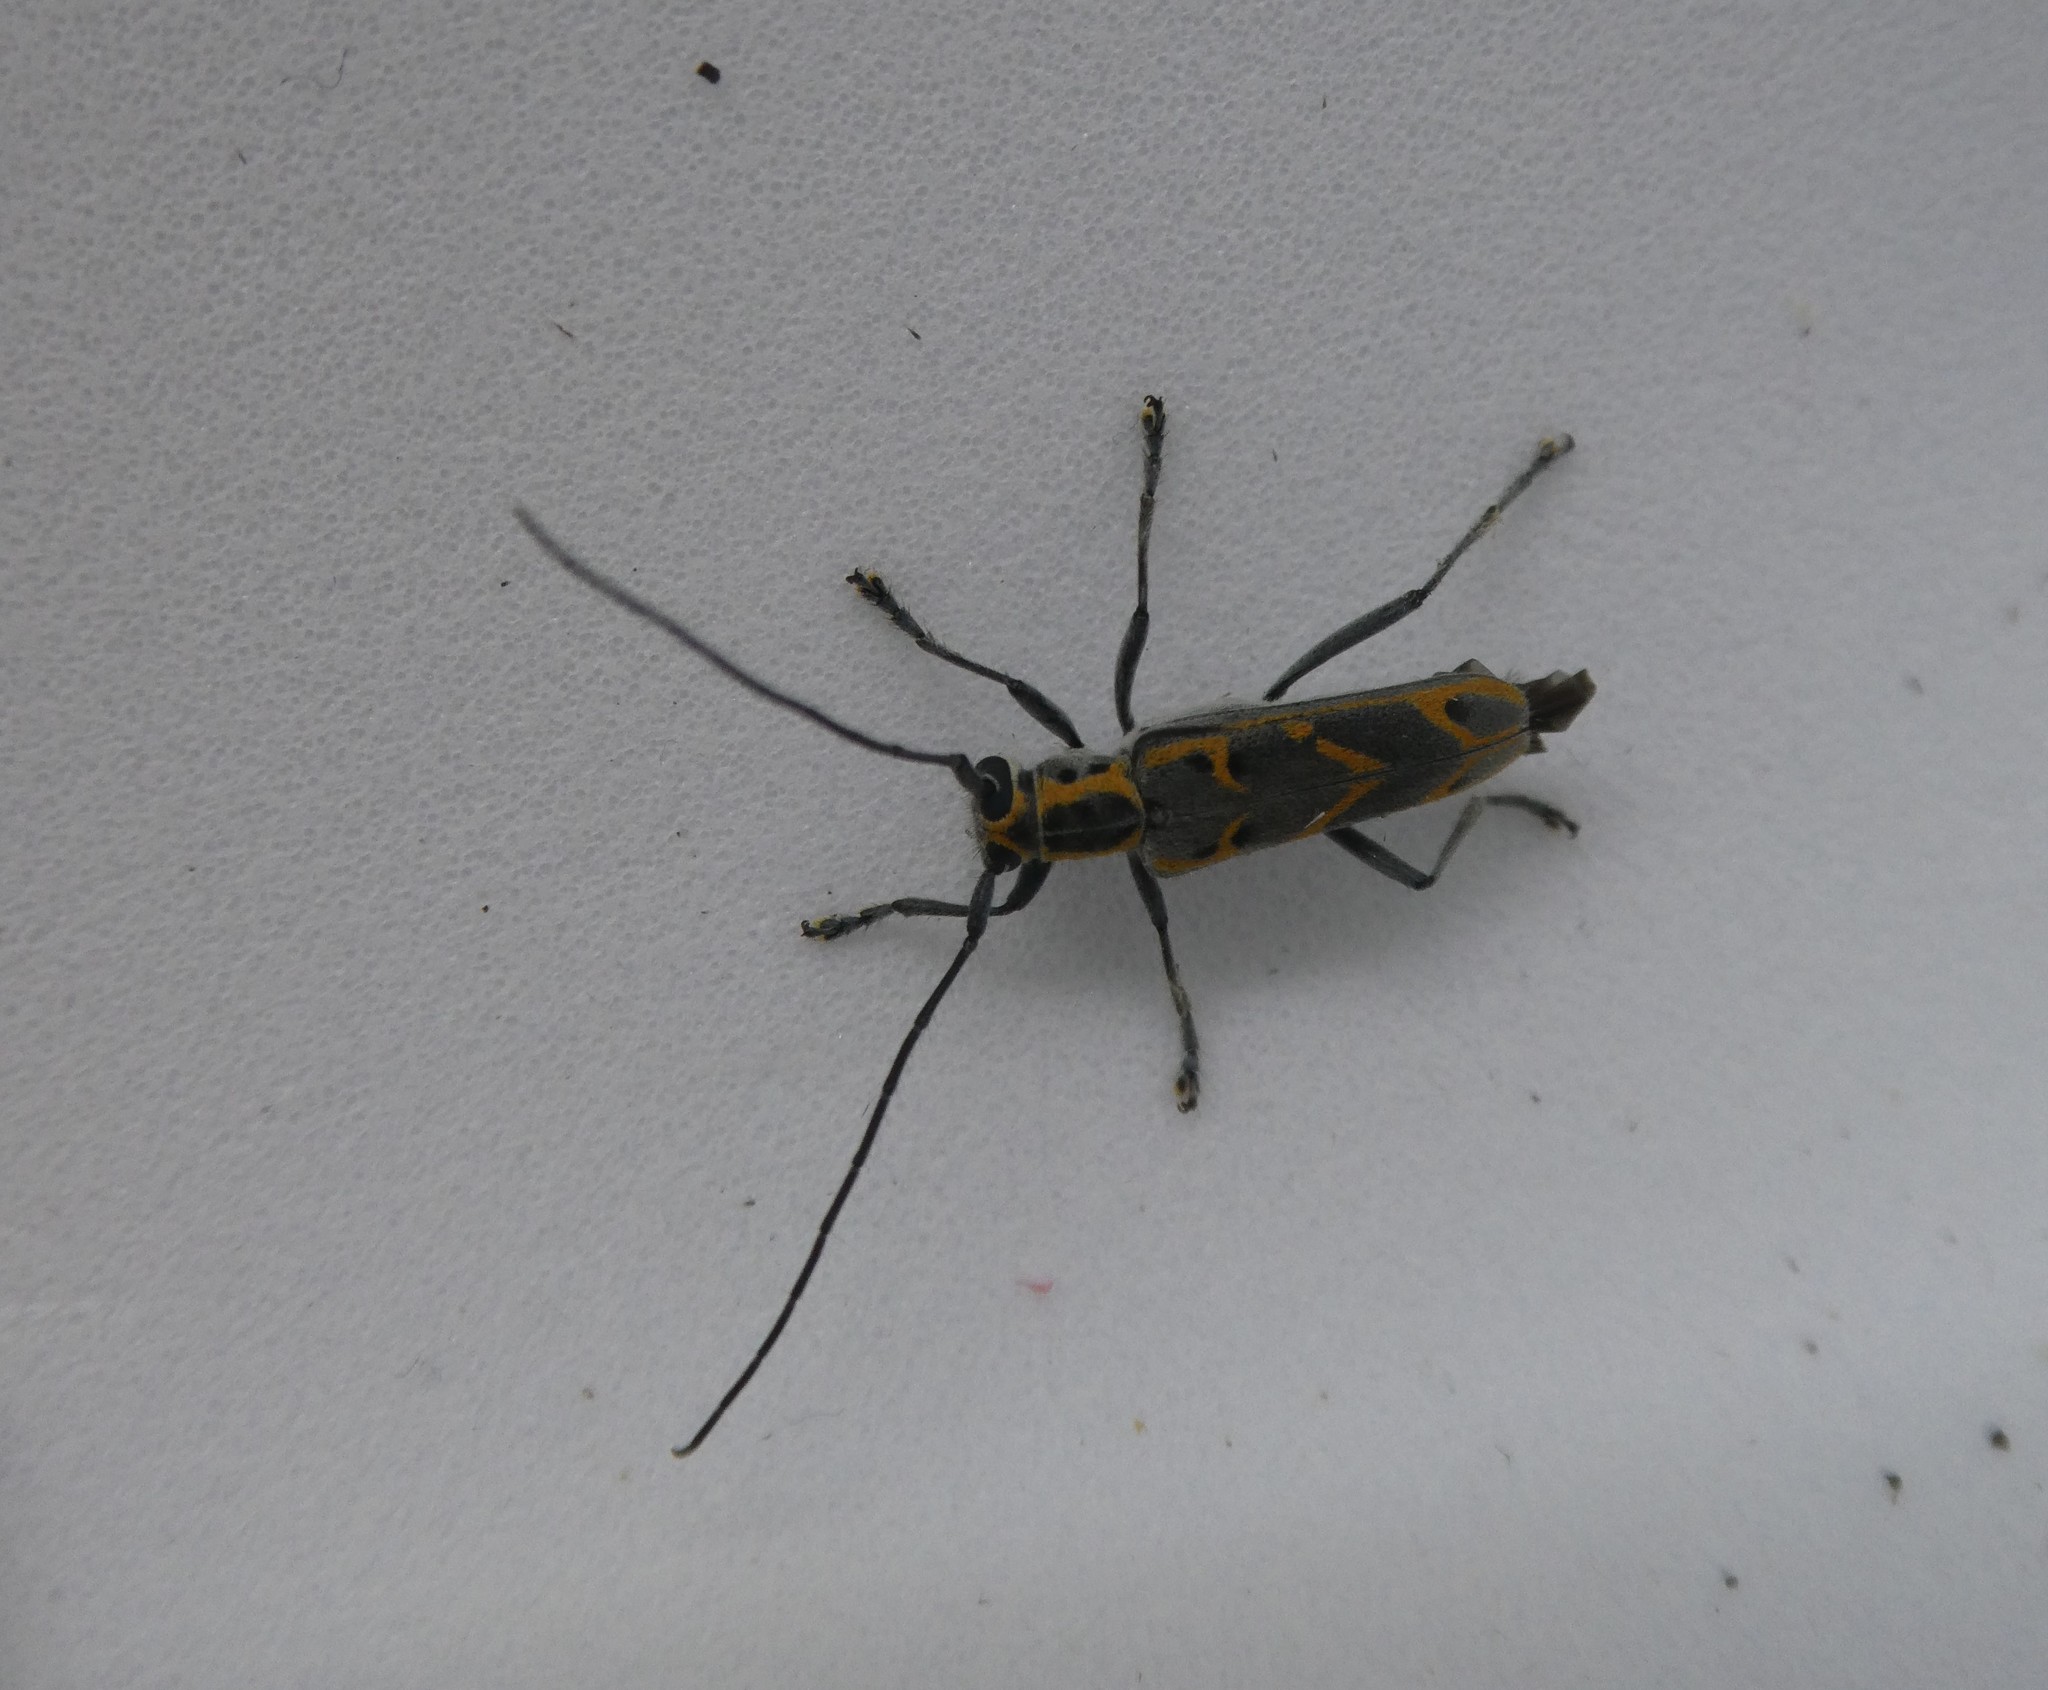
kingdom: Animalia
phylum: Arthropoda
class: Insecta
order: Coleoptera
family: Cerambycidae
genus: Saperda
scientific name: Saperda tridentata
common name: Elm borer
